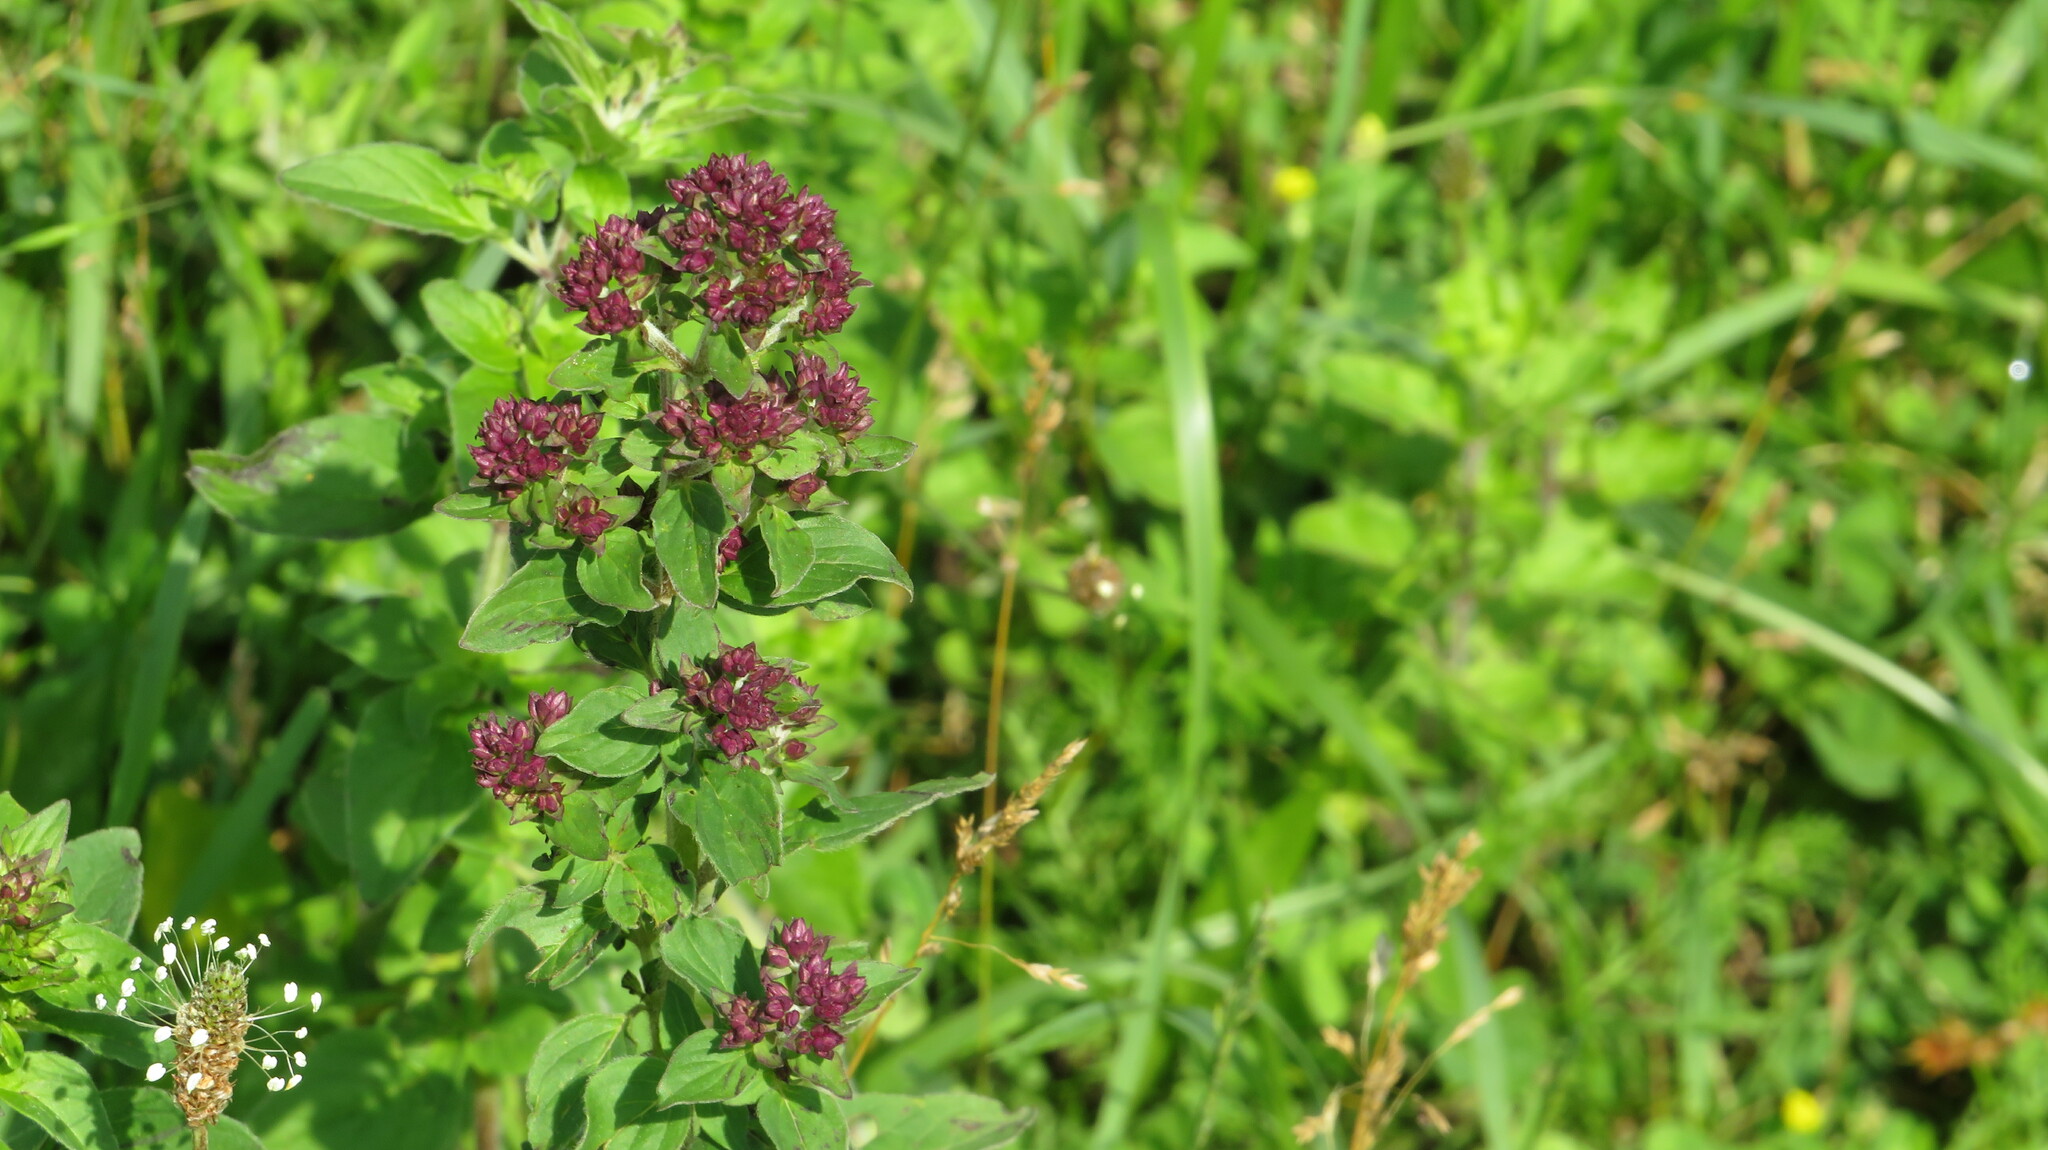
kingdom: Plantae
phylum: Tracheophyta
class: Magnoliopsida
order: Lamiales
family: Lamiaceae
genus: Origanum
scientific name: Origanum vulgare
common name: Wild marjoram
